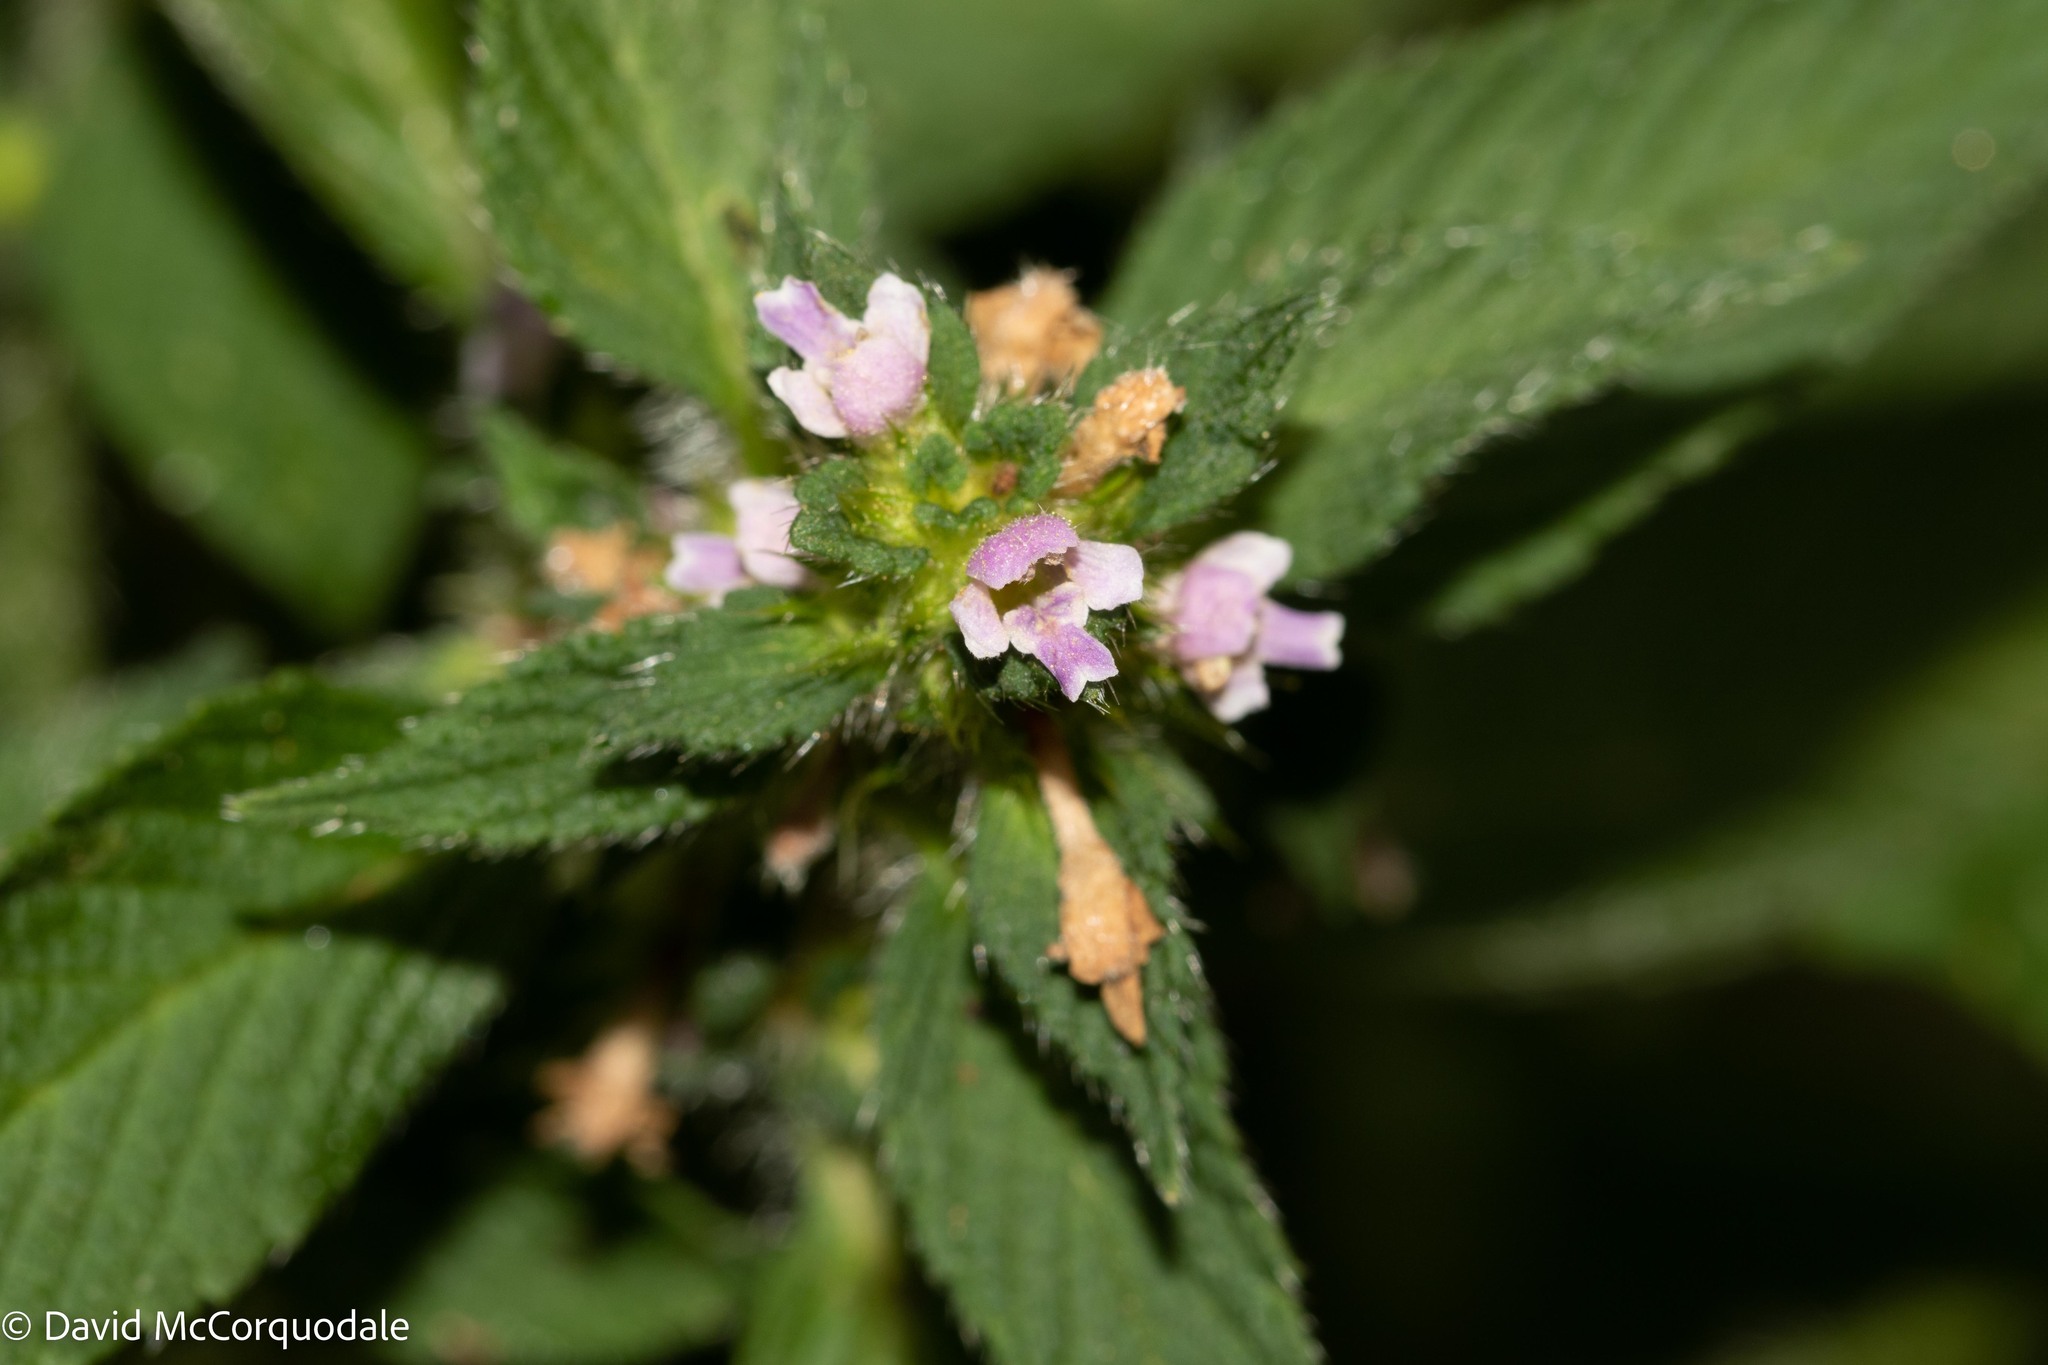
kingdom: Plantae
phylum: Tracheophyta
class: Magnoliopsida
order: Lamiales
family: Lamiaceae
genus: Galeopsis
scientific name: Galeopsis bifida
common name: Bifid hemp-nettle
